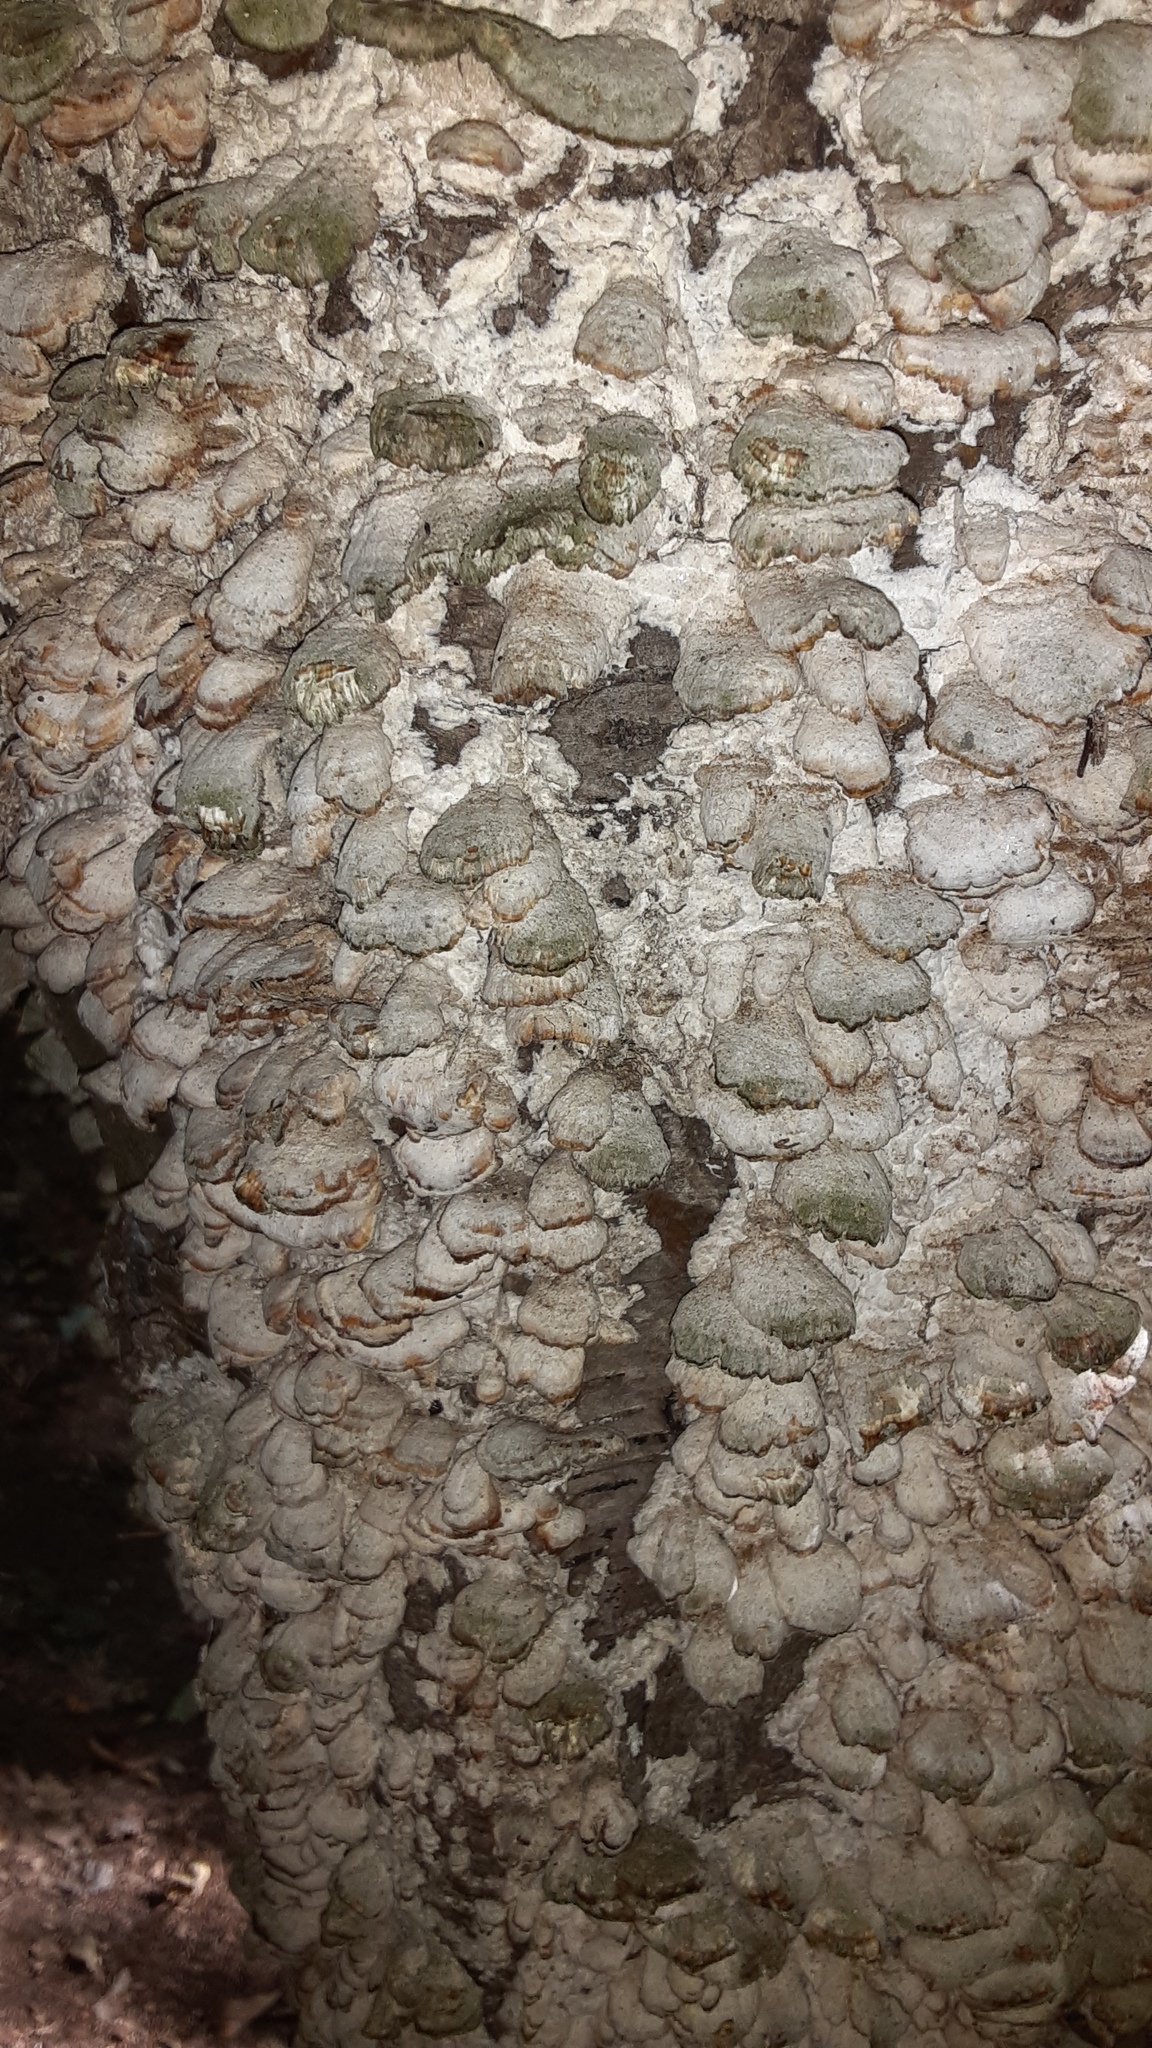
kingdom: Fungi
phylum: Basidiomycota
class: Agaricomycetes
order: Hymenochaetales
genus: Trichaptum
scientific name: Trichaptum biforme
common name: Violet-toothed polypore
